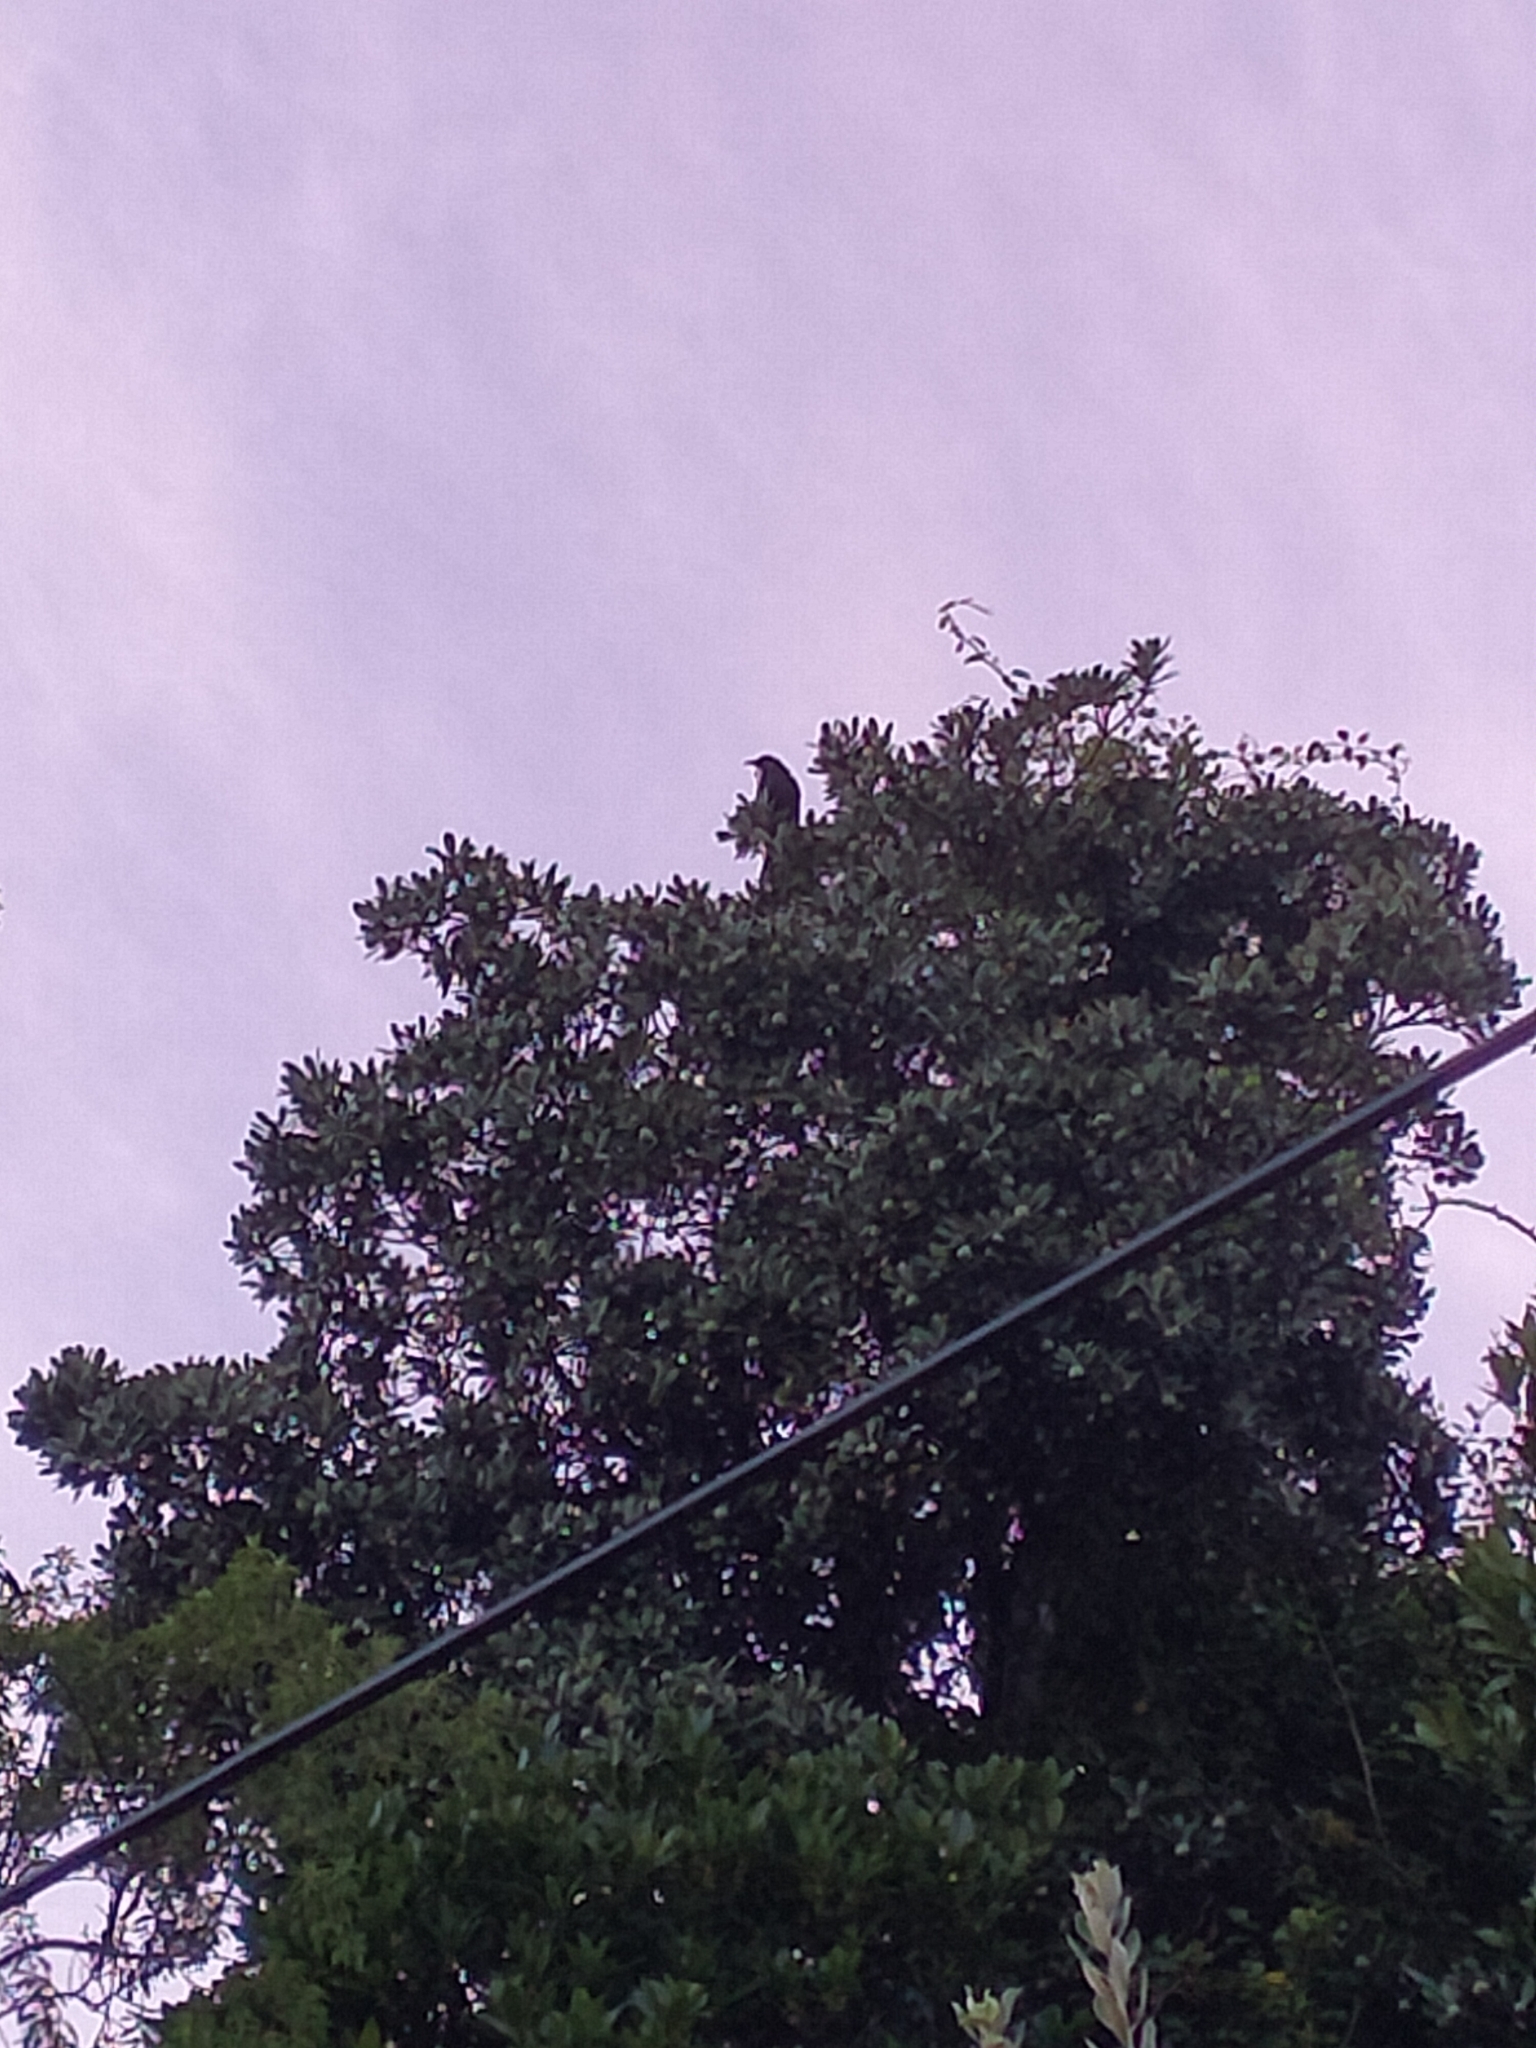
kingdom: Animalia
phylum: Chordata
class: Aves
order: Passeriformes
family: Meliphagidae
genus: Prosthemadera
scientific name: Prosthemadera novaeseelandiae
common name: Tui
